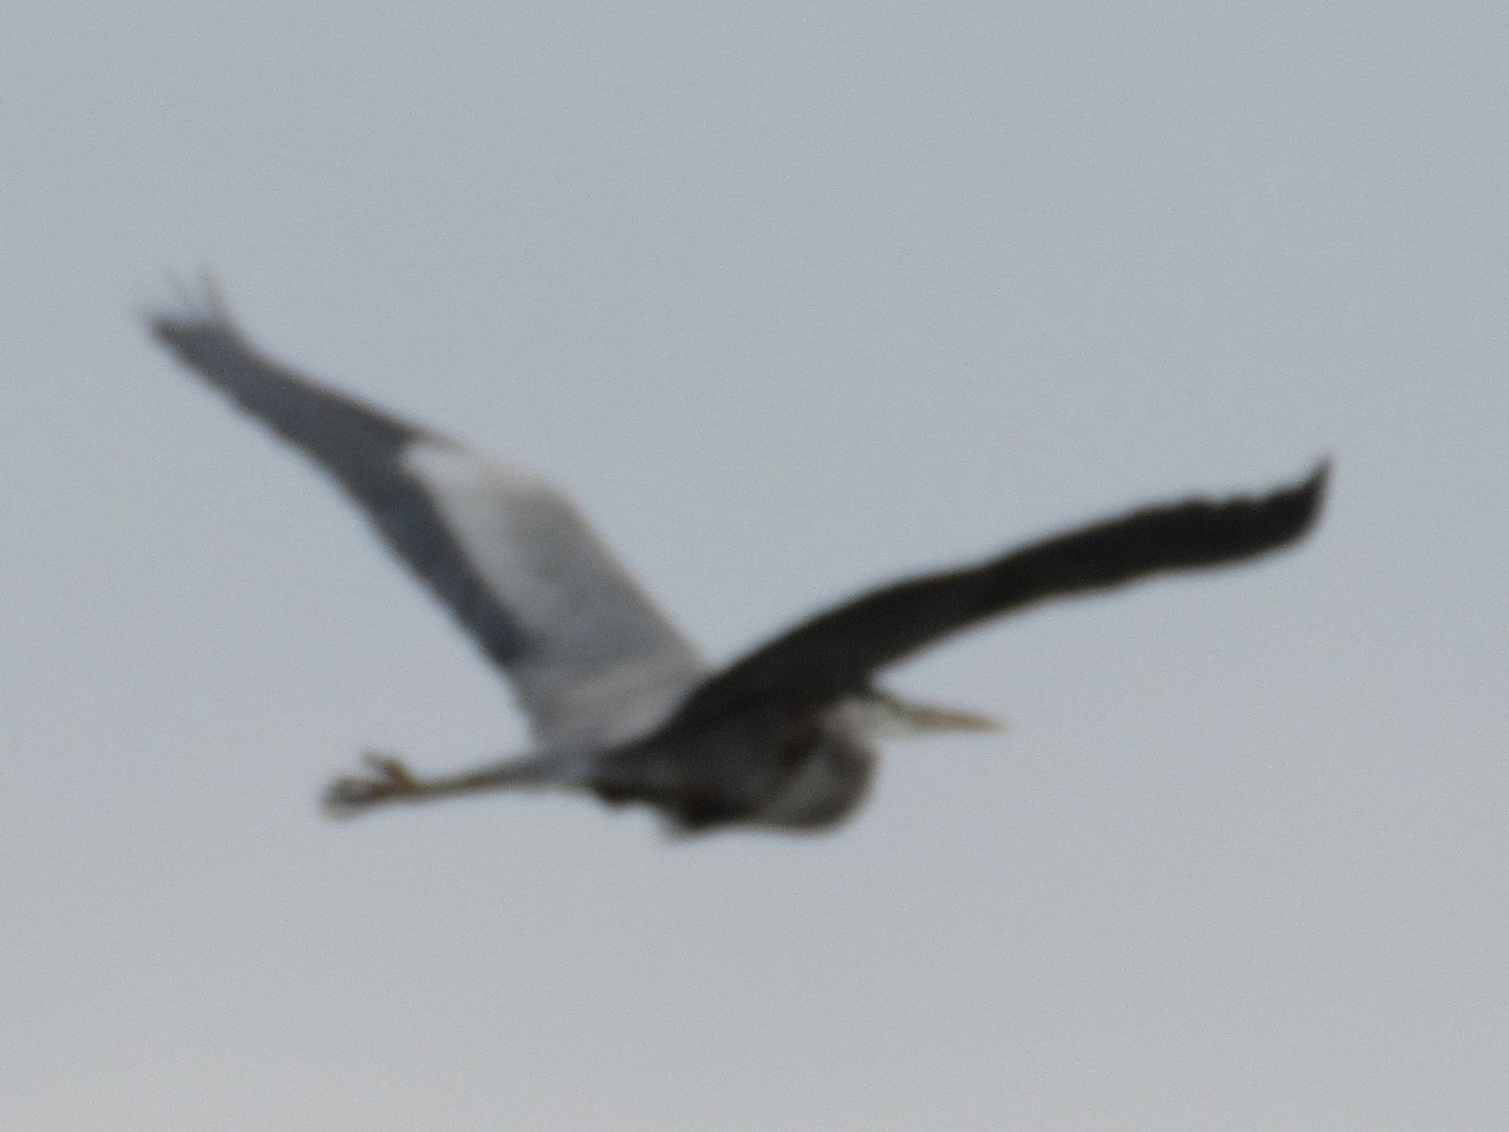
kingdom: Animalia
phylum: Chordata
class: Aves
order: Pelecaniformes
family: Ardeidae
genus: Ardea
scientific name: Ardea herodias
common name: Great blue heron
